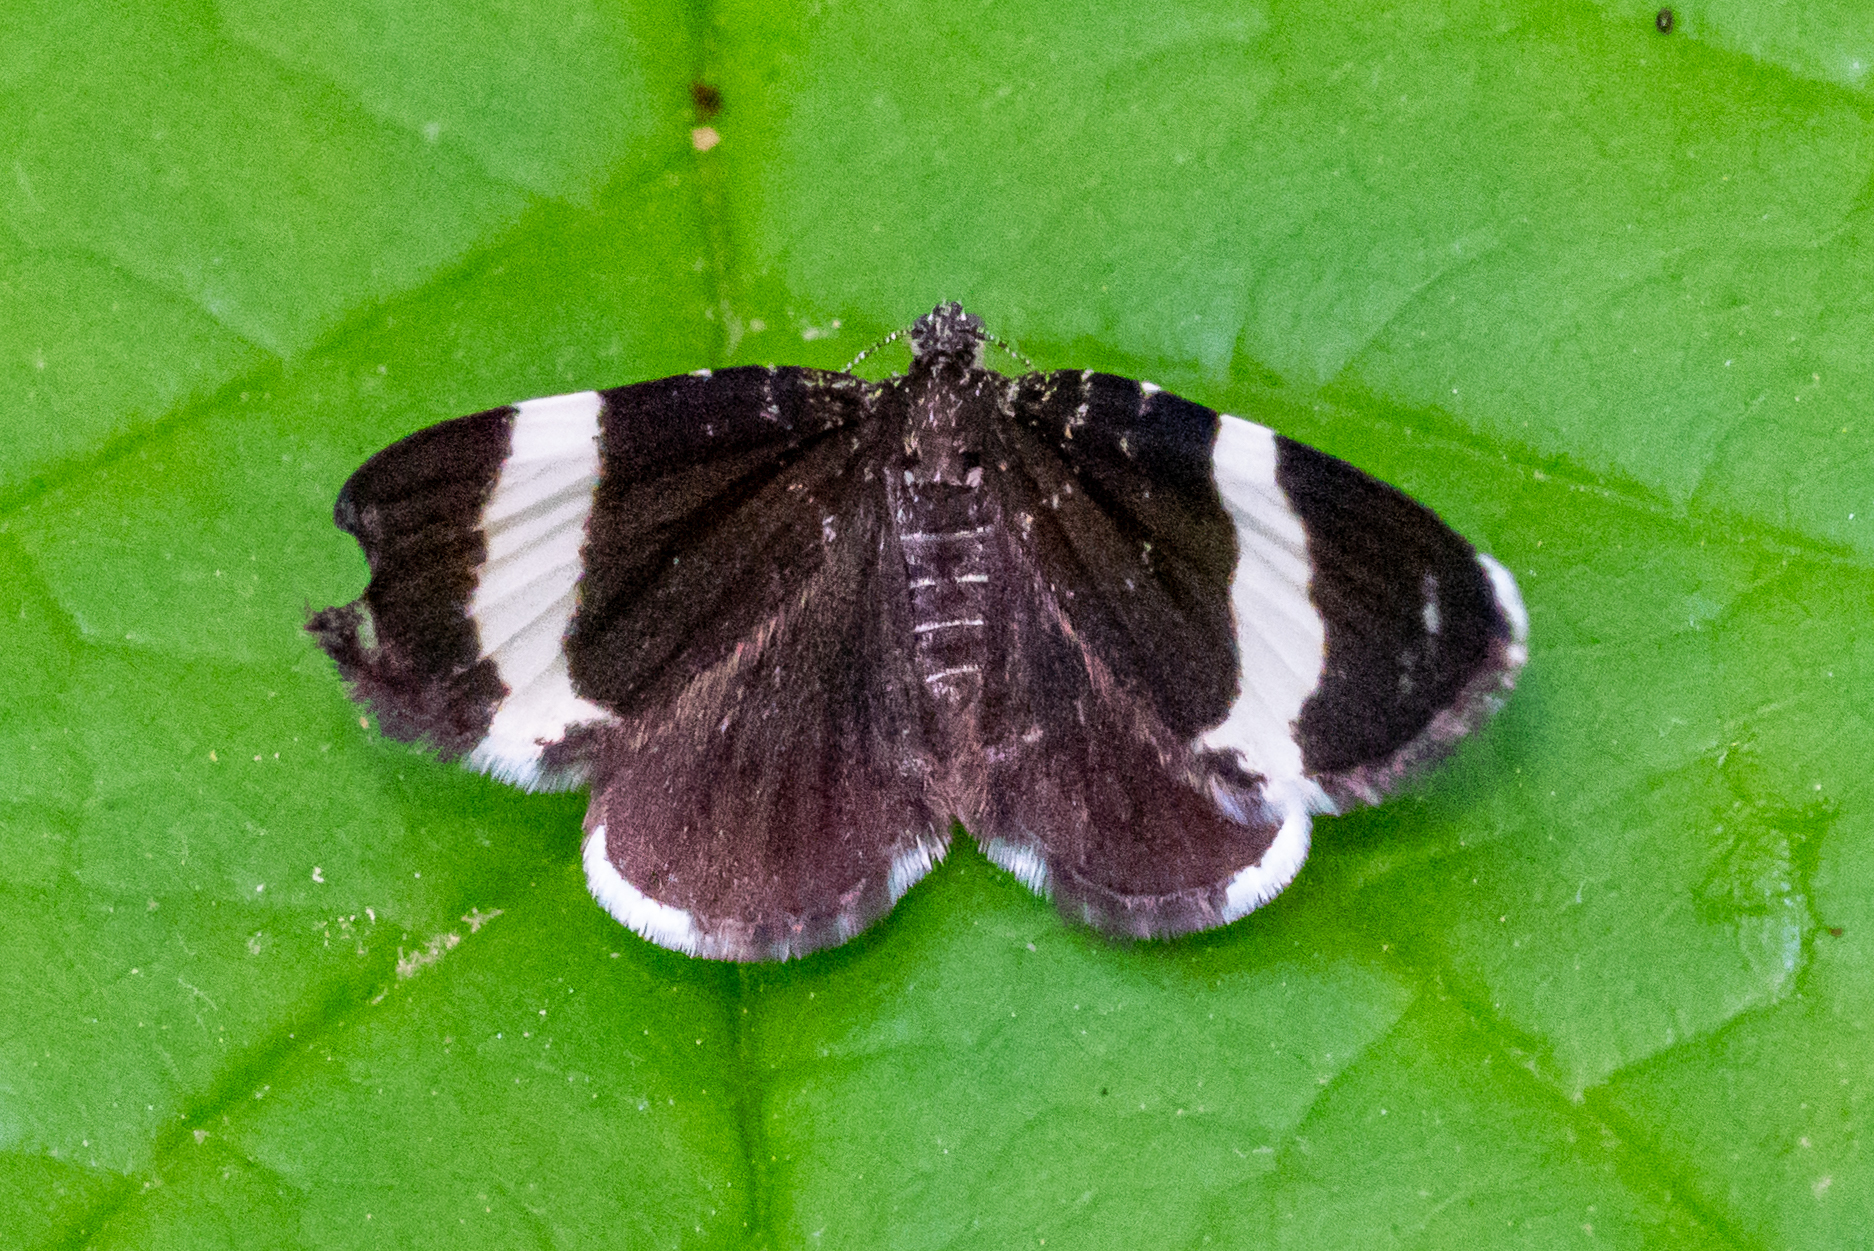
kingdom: Animalia
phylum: Arthropoda
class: Insecta
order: Lepidoptera
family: Geometridae
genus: Trichodezia
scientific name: Trichodezia albovittata
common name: White striped black
